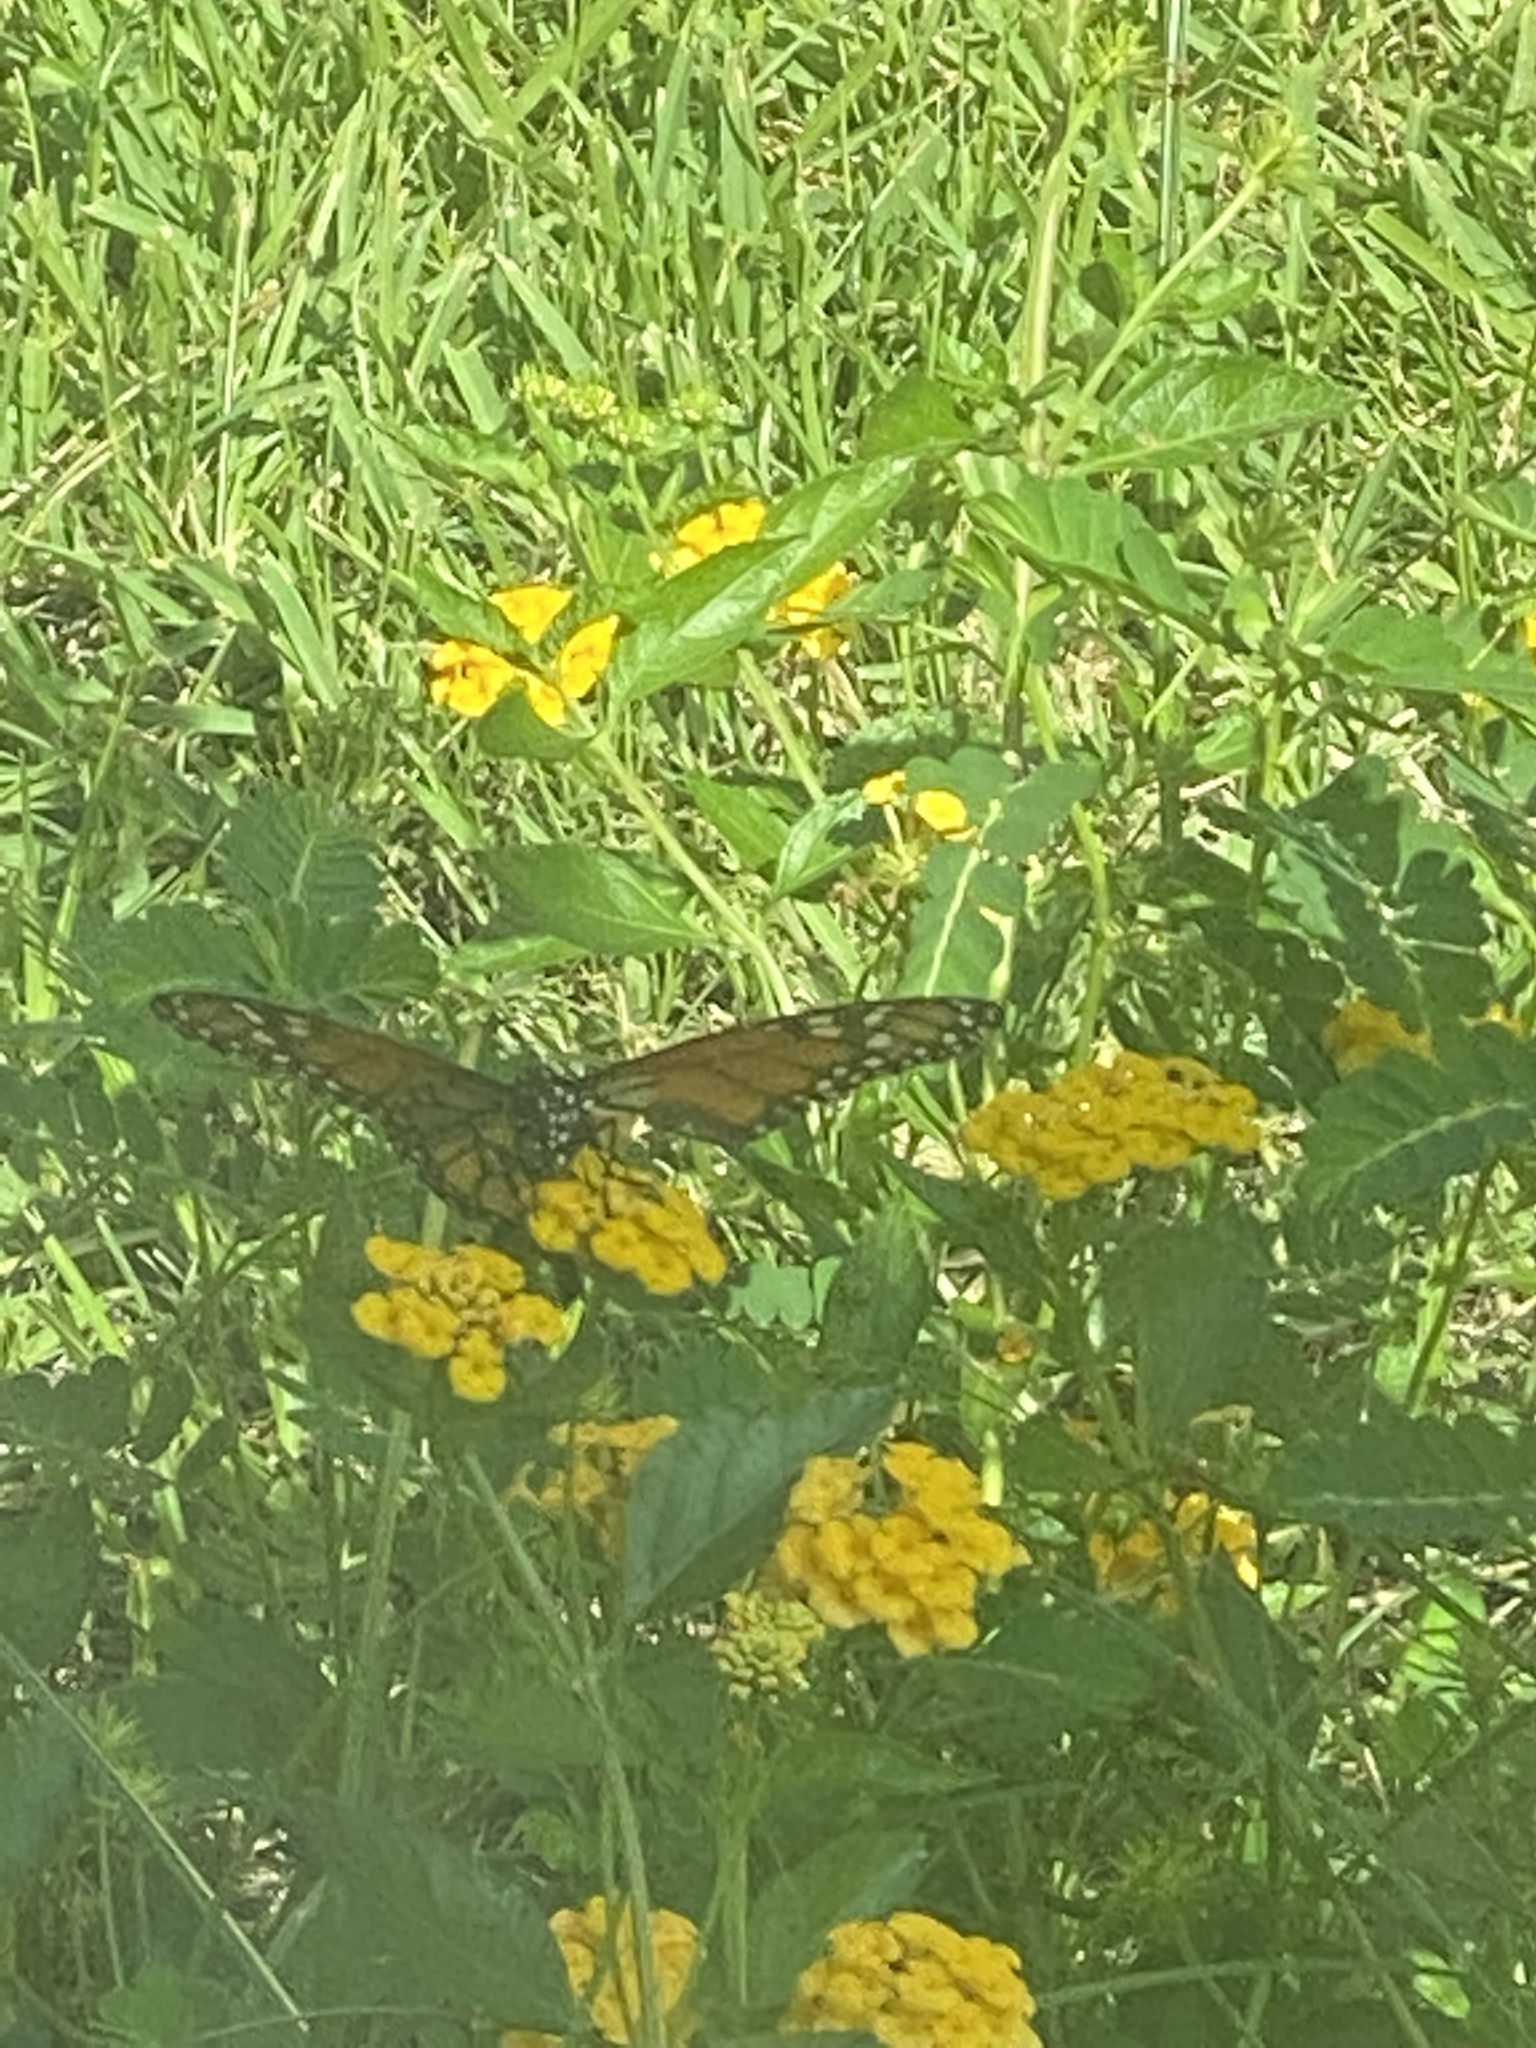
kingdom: Animalia
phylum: Arthropoda
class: Insecta
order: Lepidoptera
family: Nymphalidae
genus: Danaus
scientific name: Danaus plexippus
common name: Monarch
